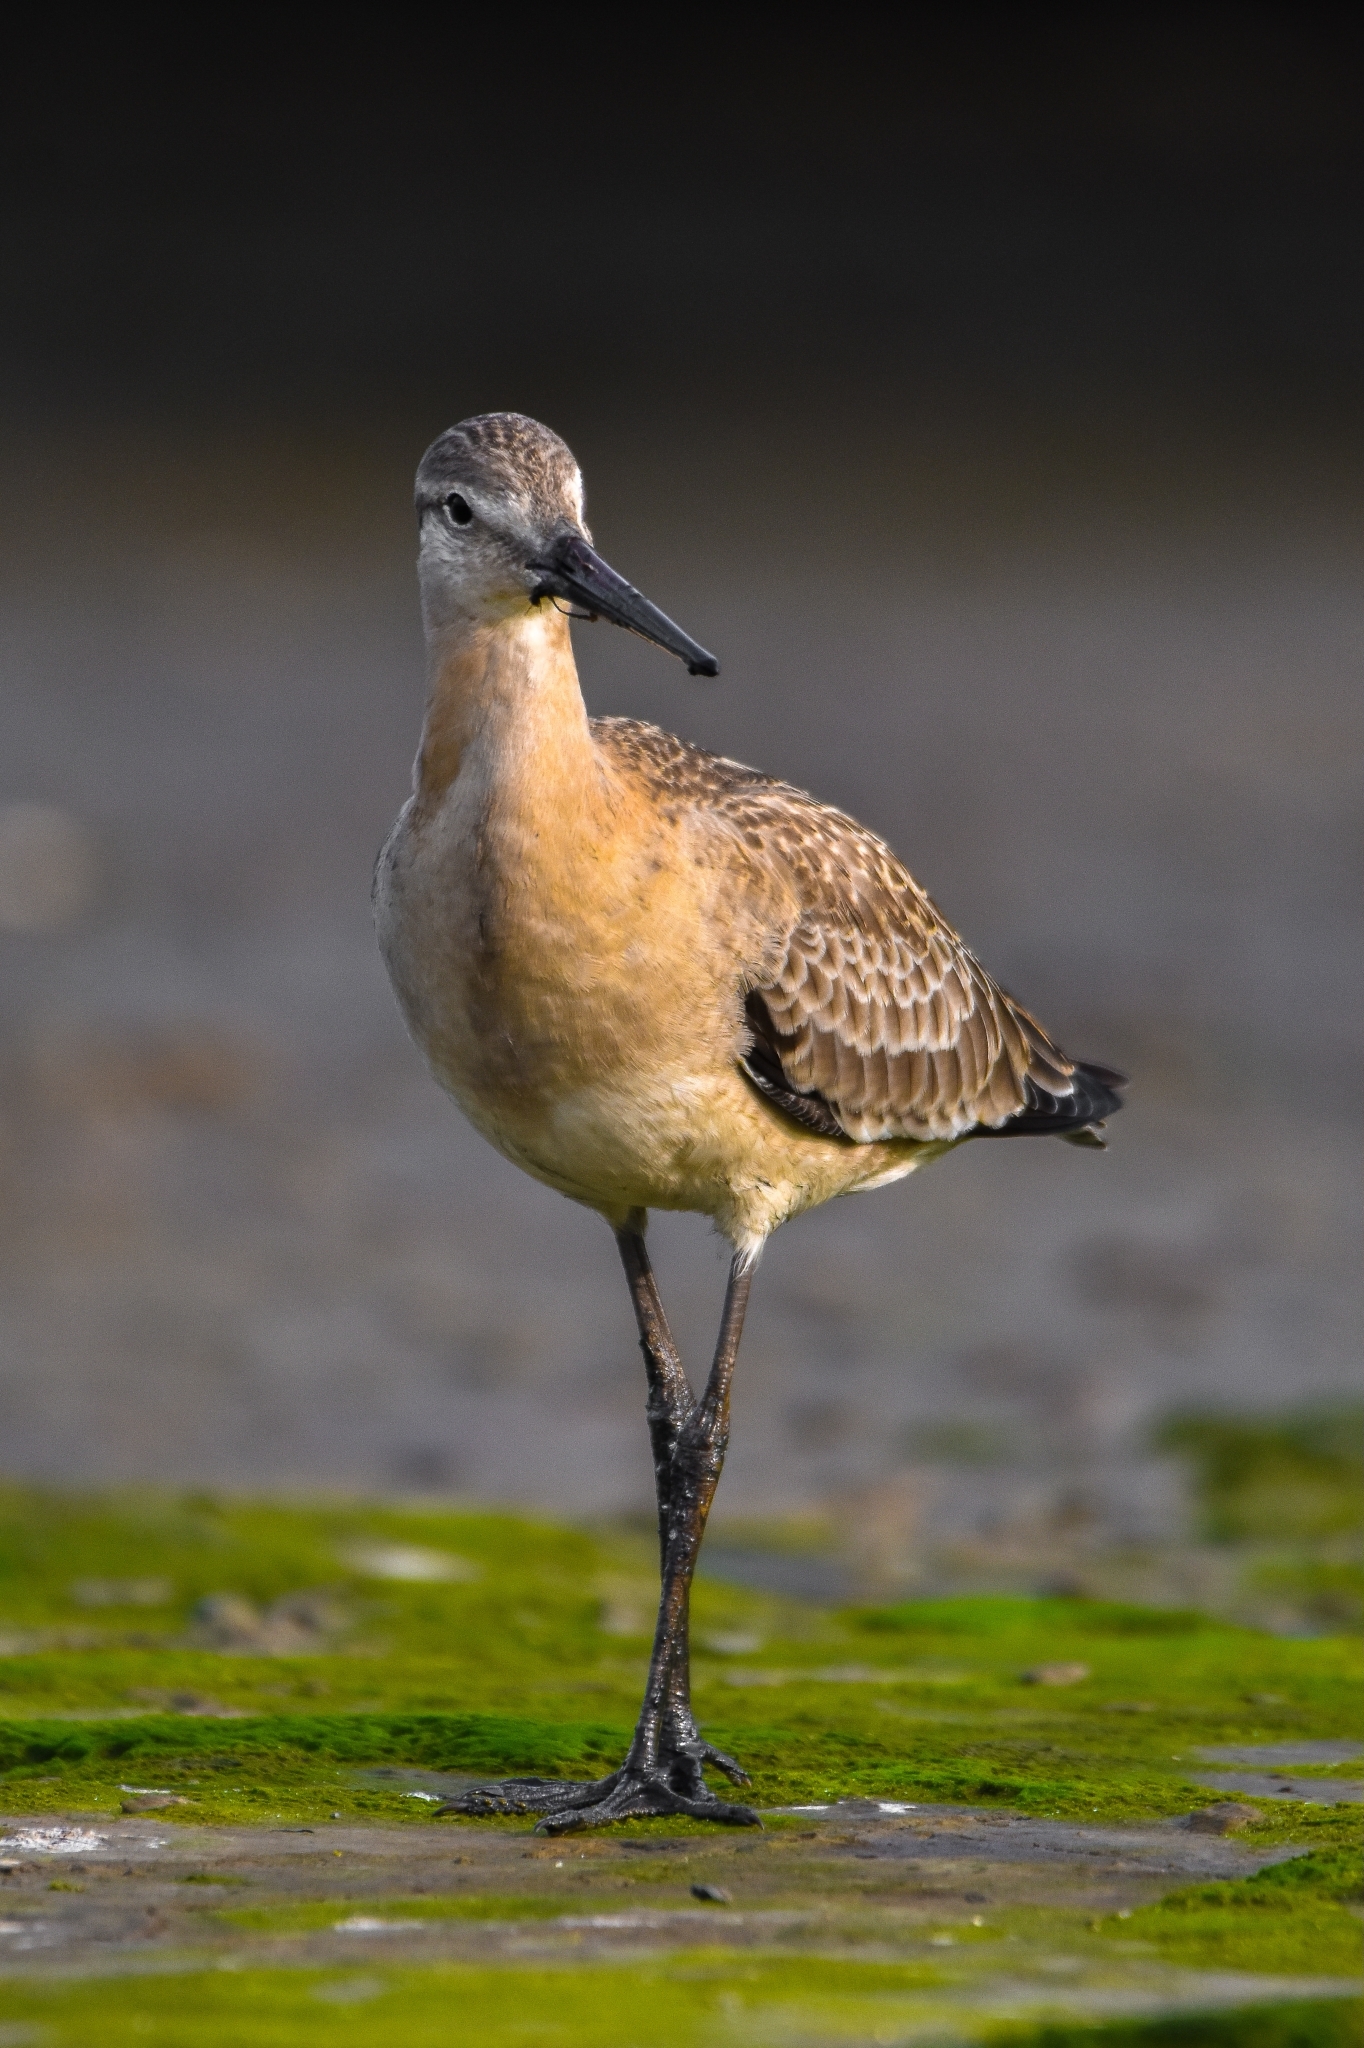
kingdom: Animalia
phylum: Chordata
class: Aves
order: Charadriiformes
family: Scolopacidae
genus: Limosa
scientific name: Limosa limosa
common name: Black-tailed godwit
